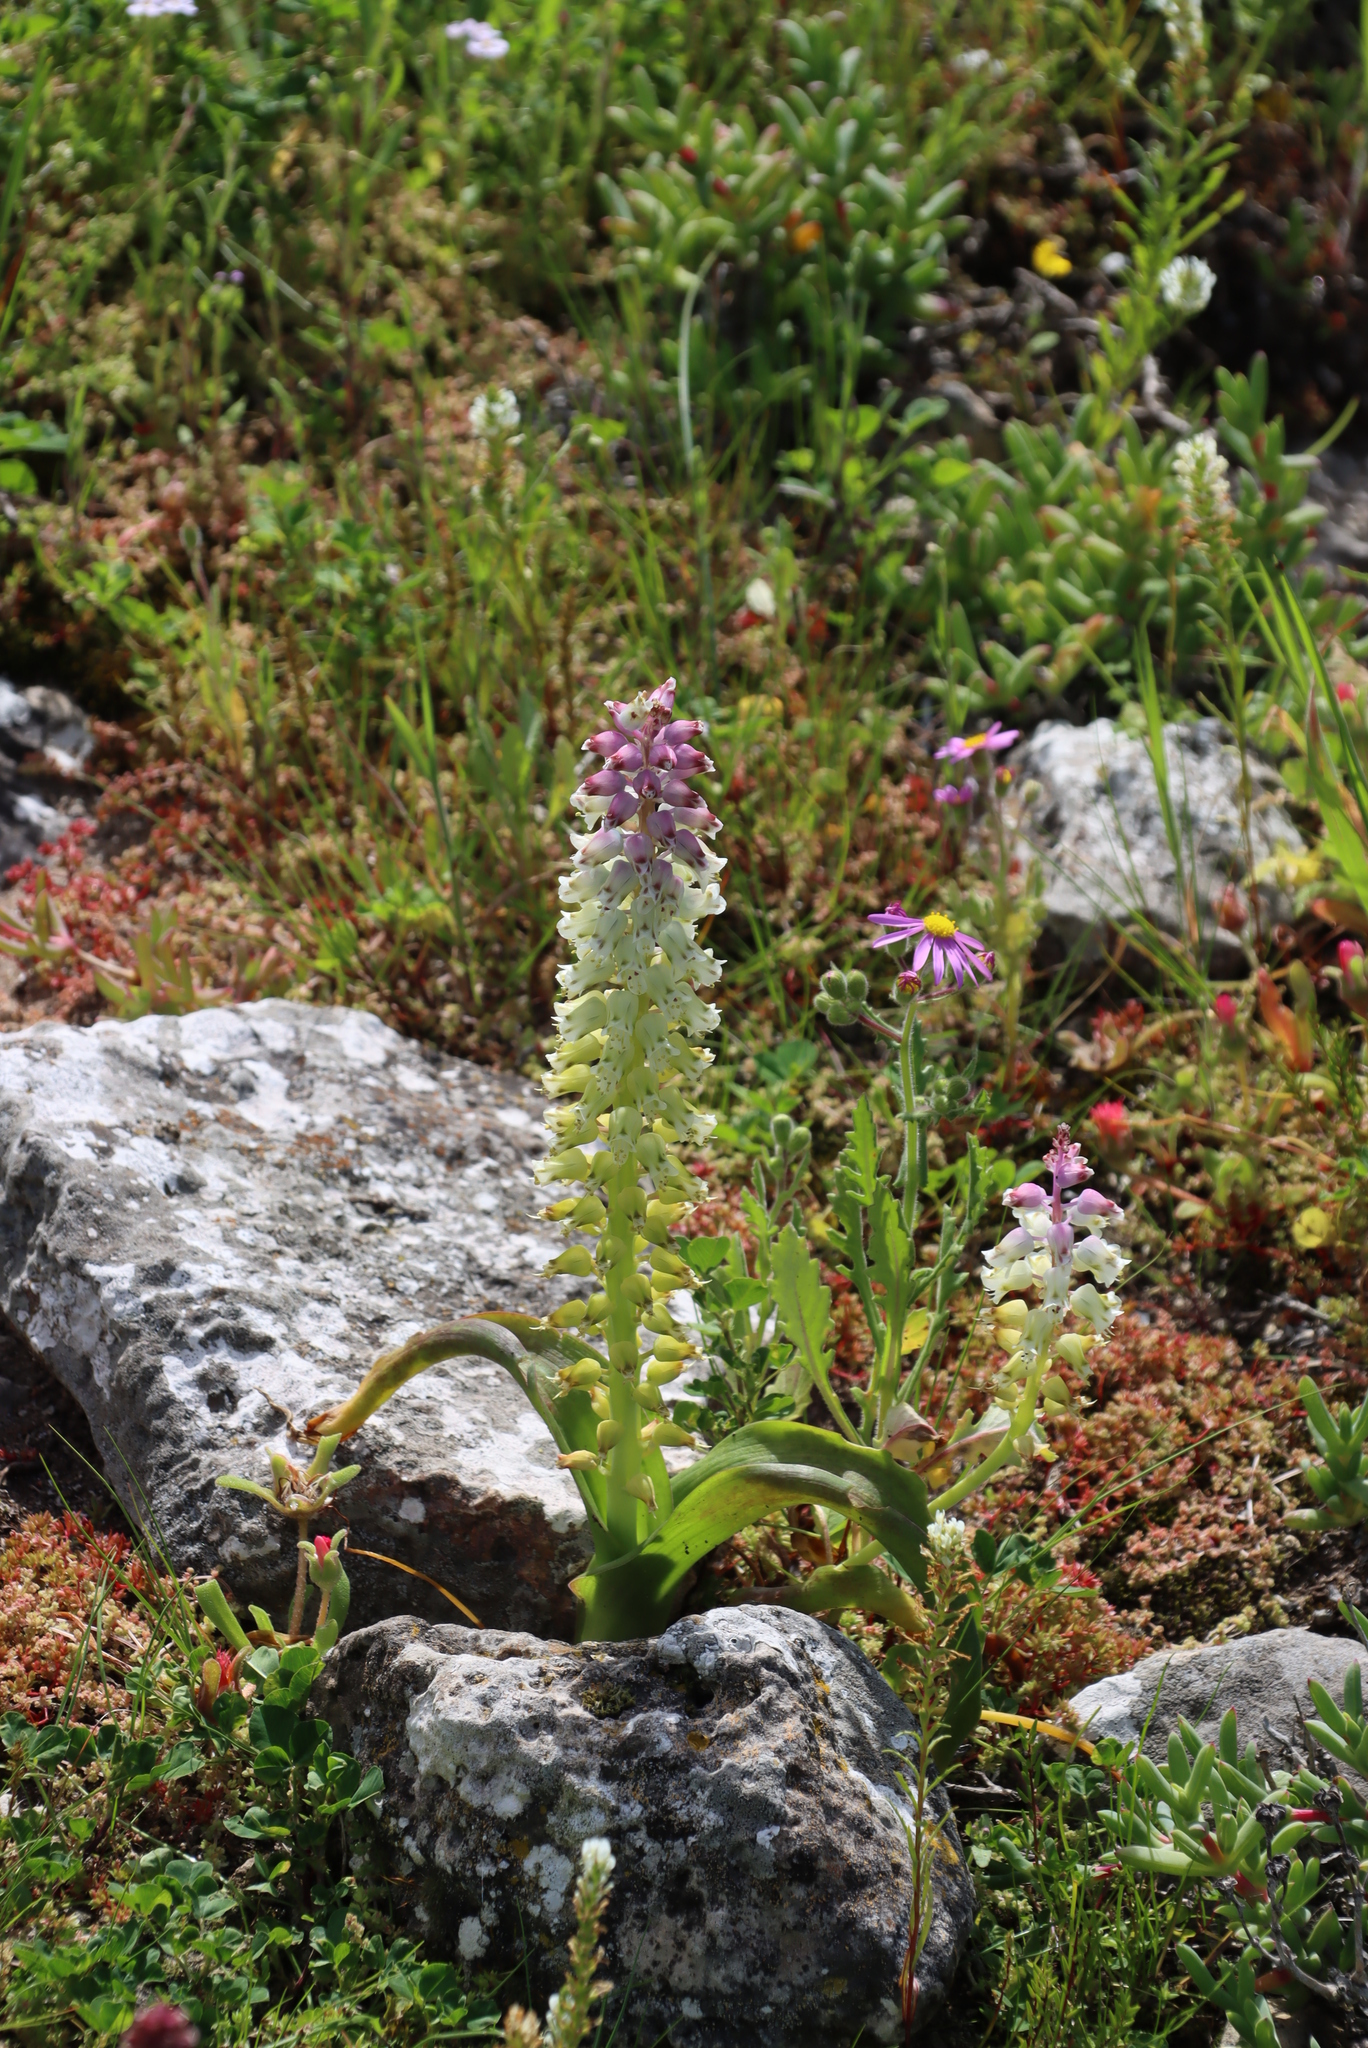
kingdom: Plantae
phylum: Tracheophyta
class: Liliopsida
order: Asparagales
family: Asparagaceae
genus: Lachenalia
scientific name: Lachenalia pallida
